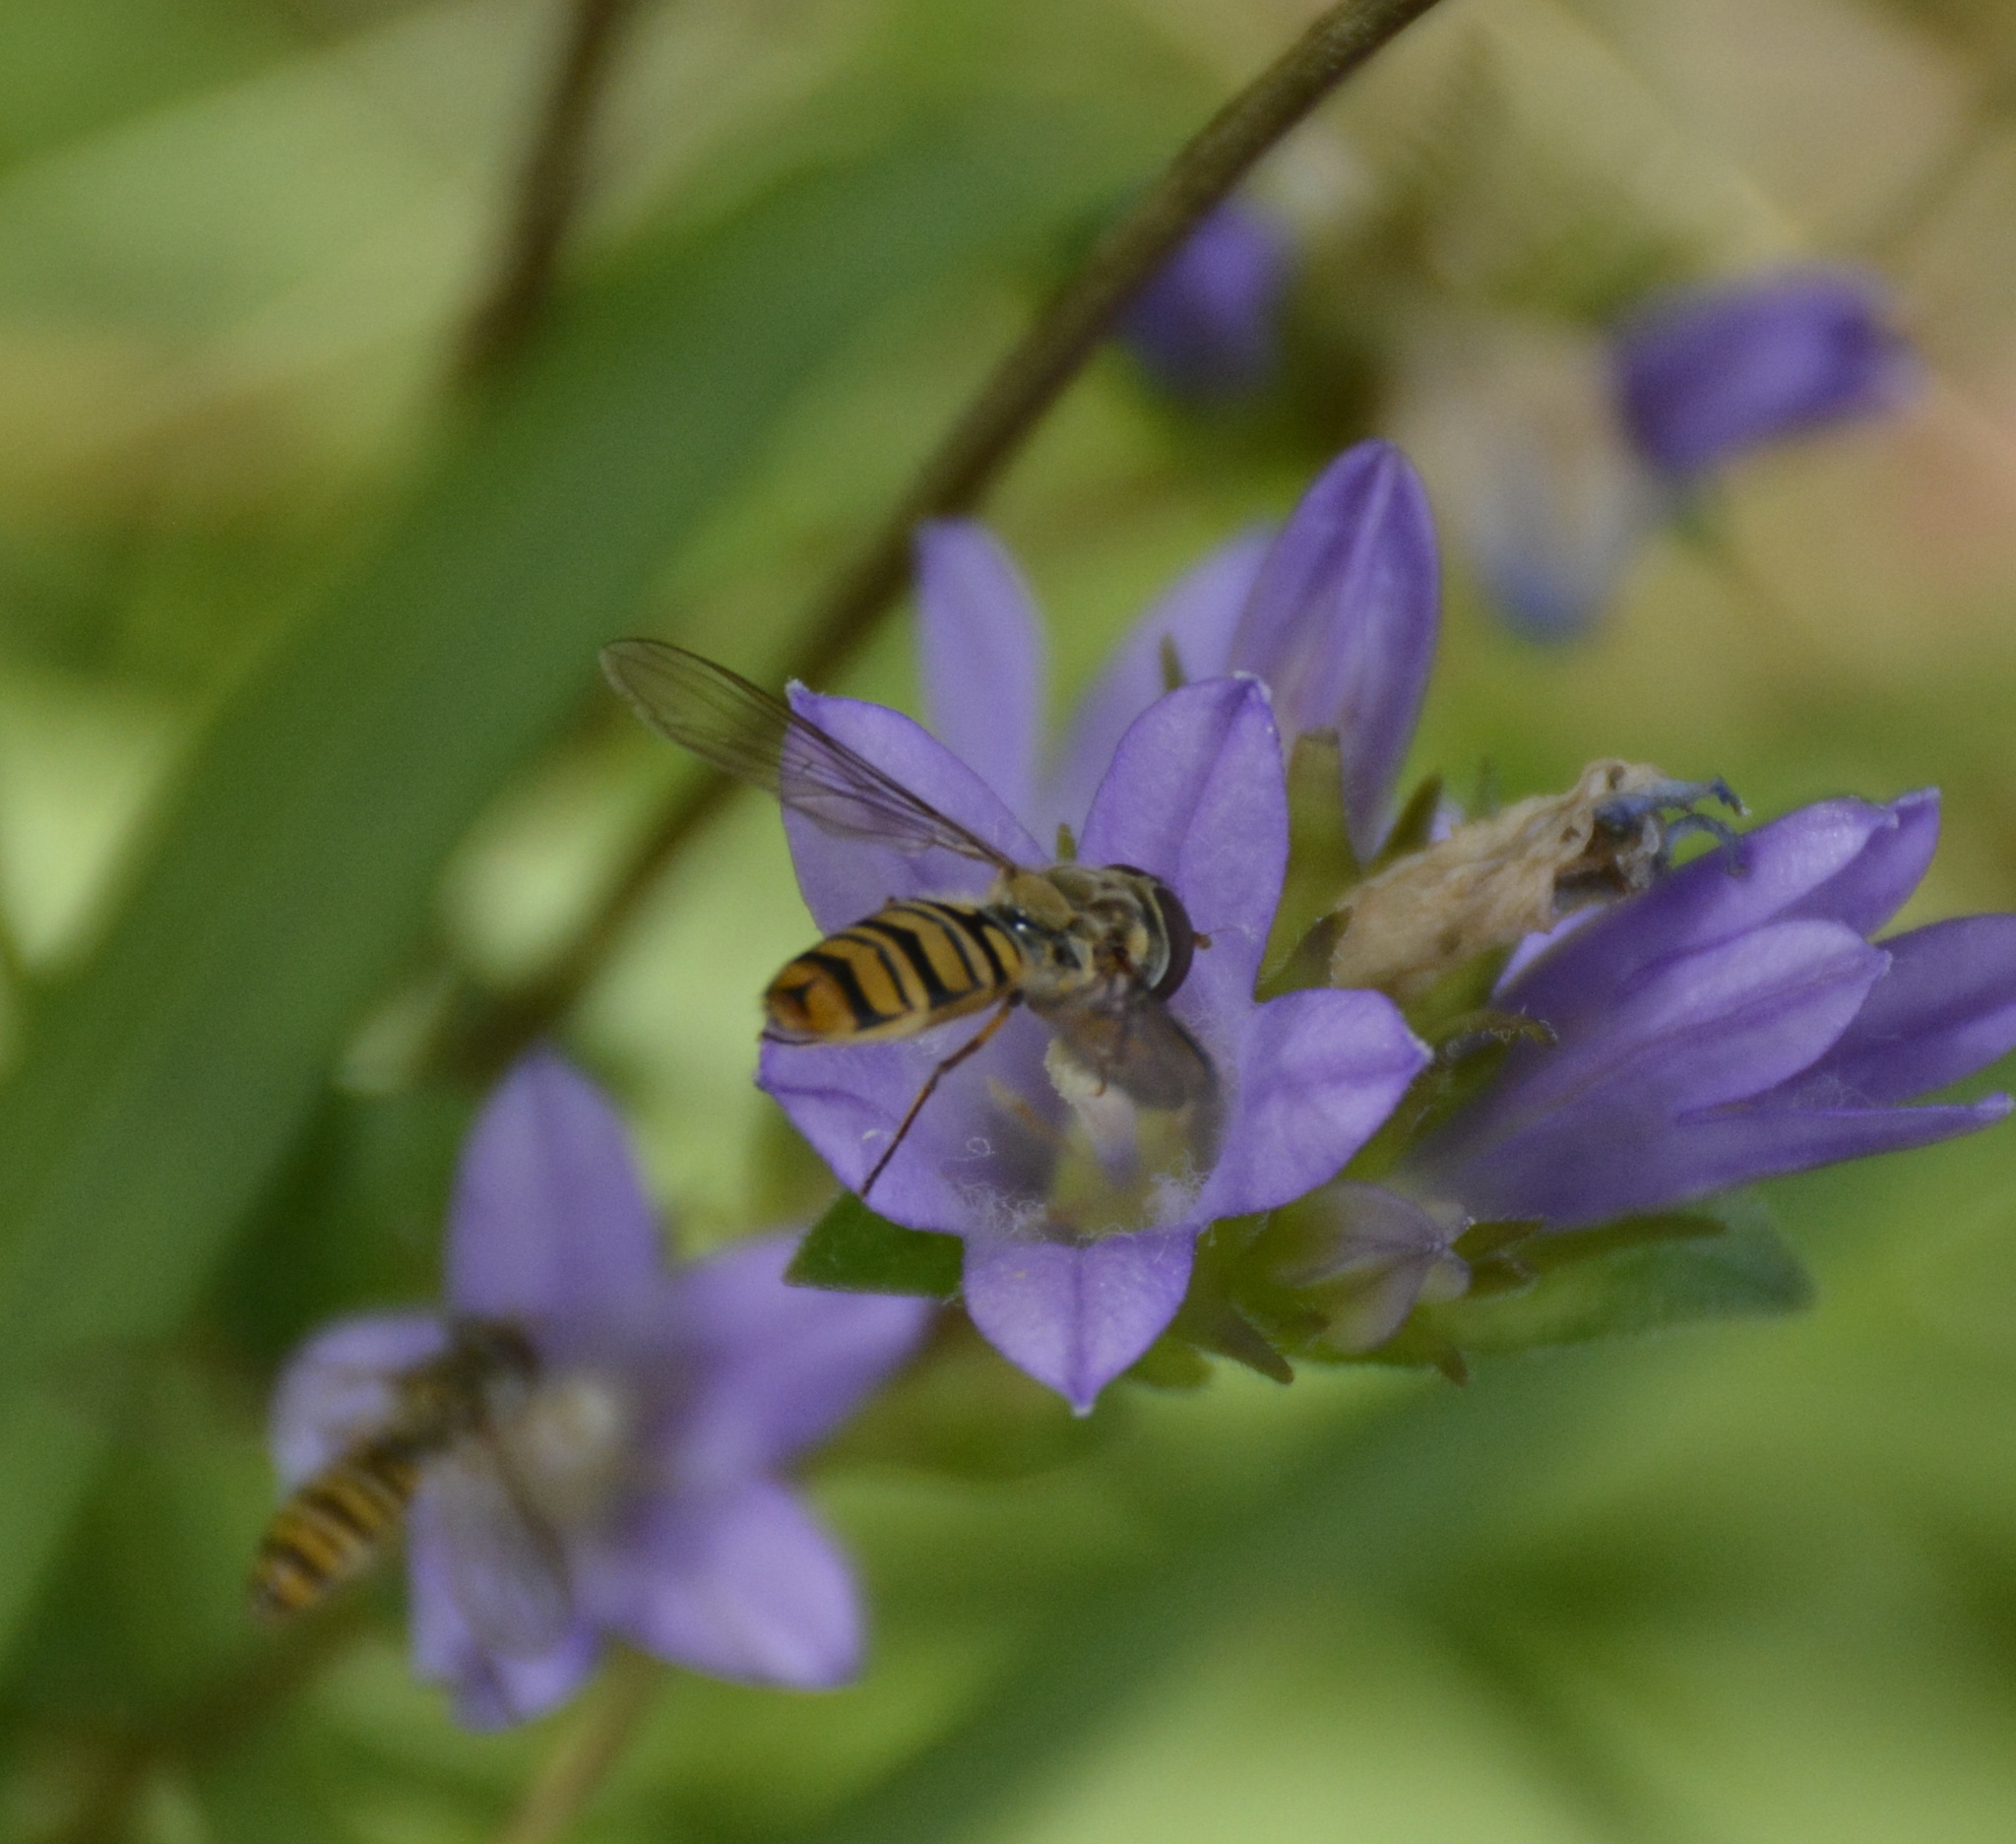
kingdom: Animalia
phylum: Arthropoda
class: Insecta
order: Diptera
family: Syrphidae
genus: Episyrphus
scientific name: Episyrphus balteatus
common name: Marmalade hoverfly
